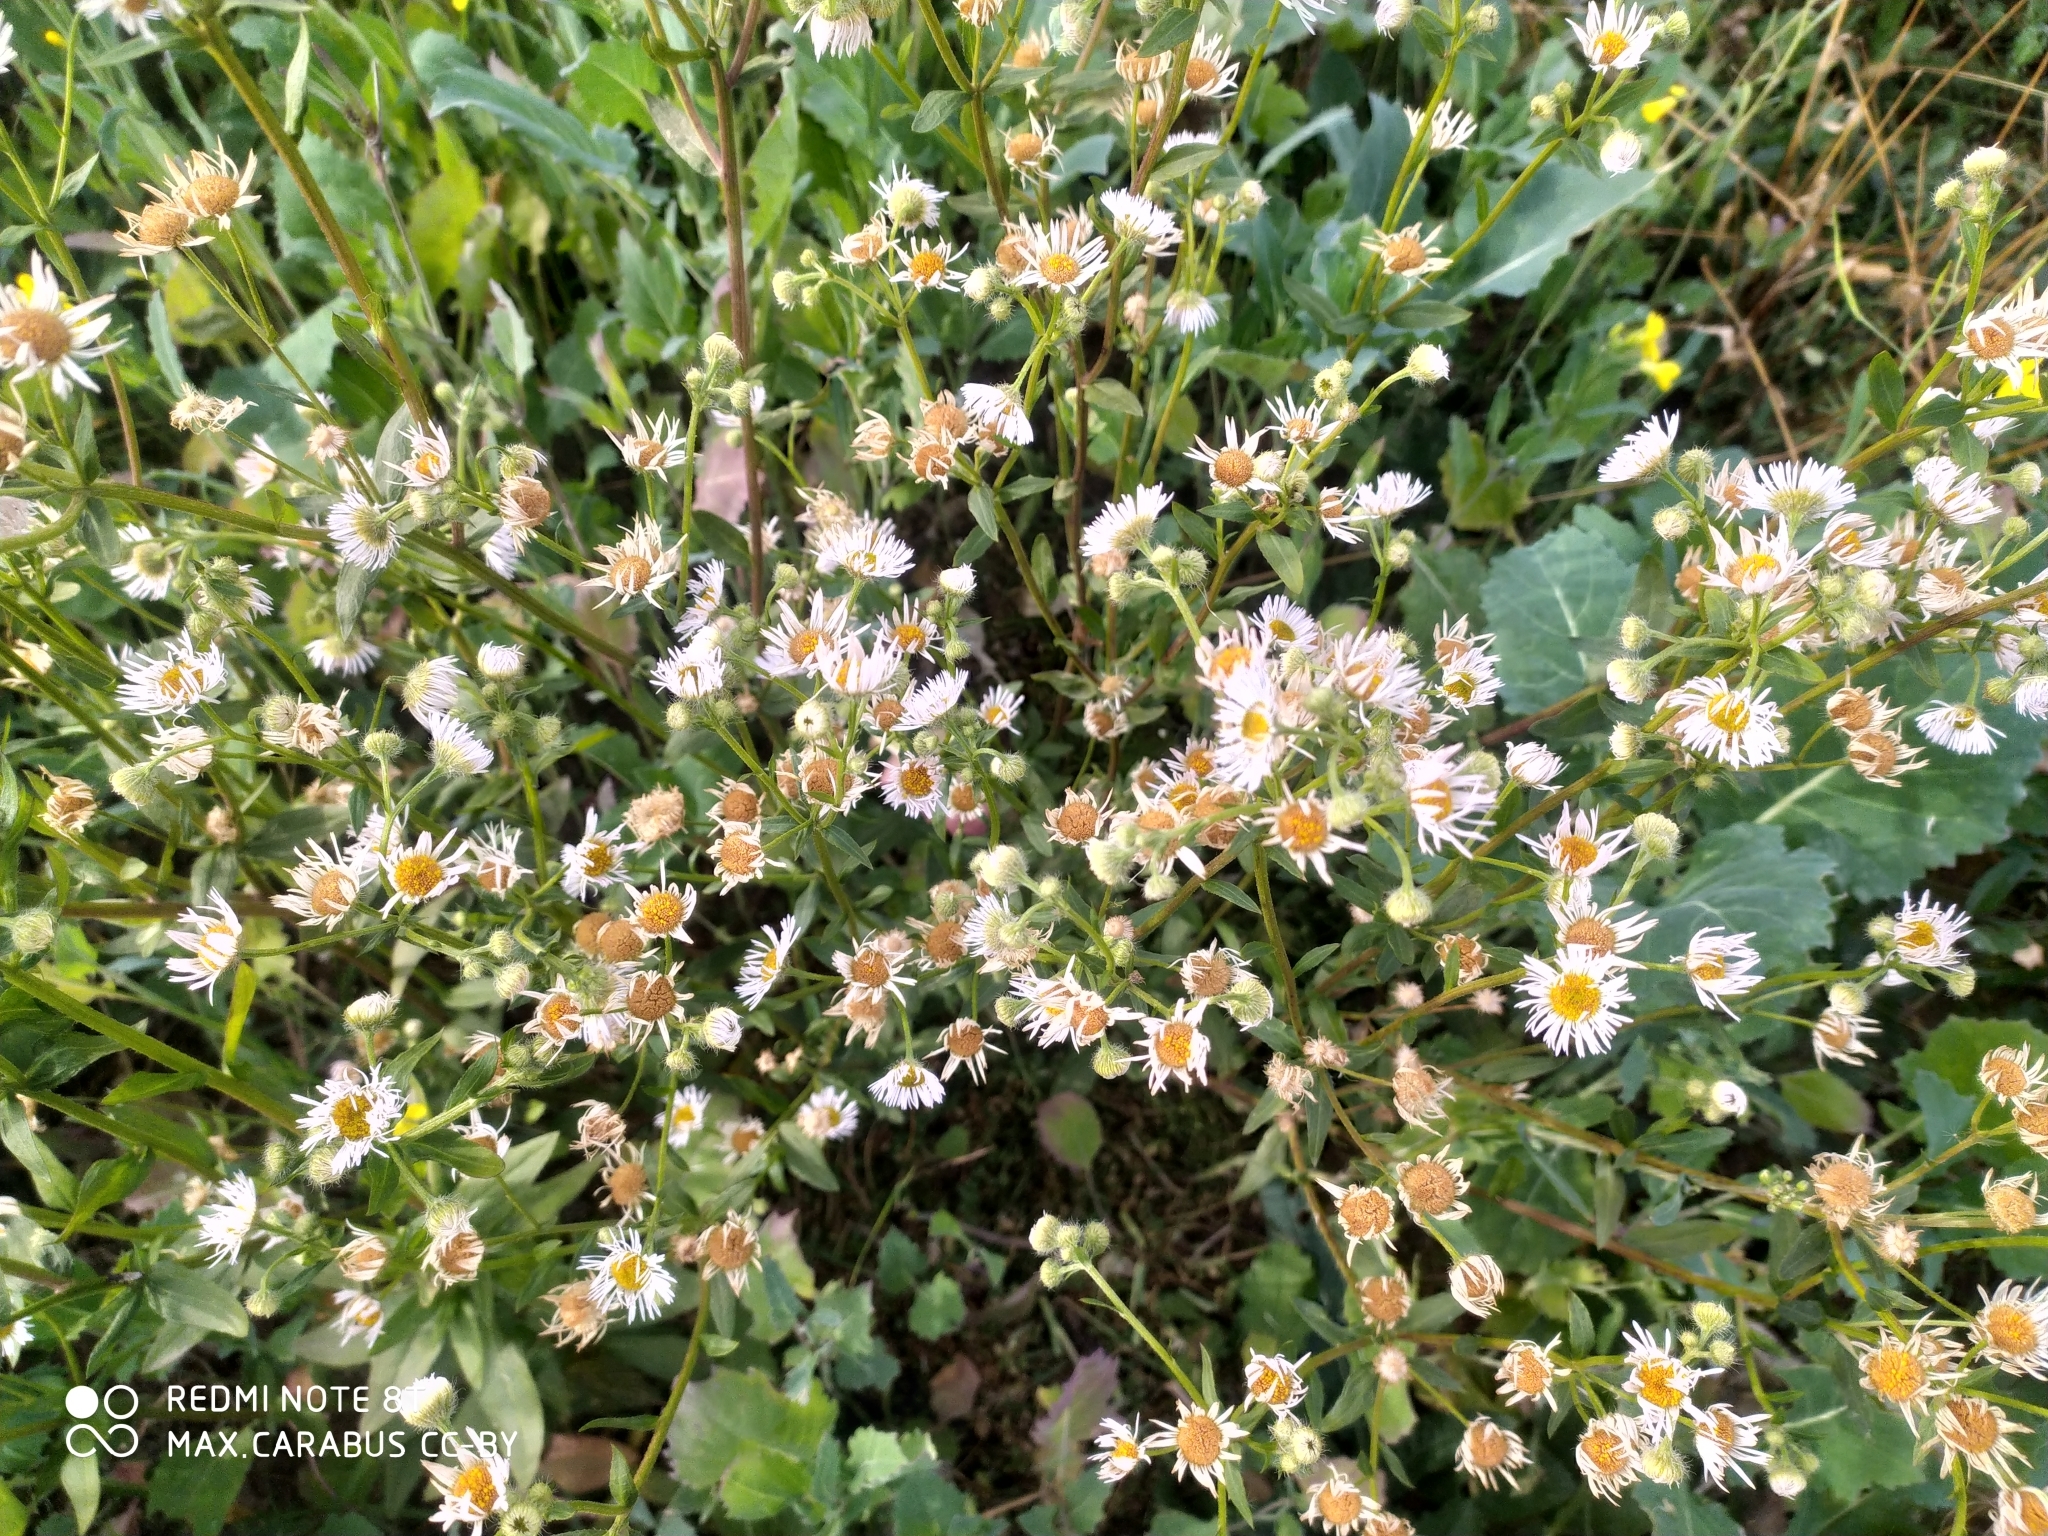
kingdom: Plantae
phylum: Tracheophyta
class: Magnoliopsida
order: Asterales
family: Asteraceae
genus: Erigeron
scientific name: Erigeron annuus
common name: Tall fleabane
